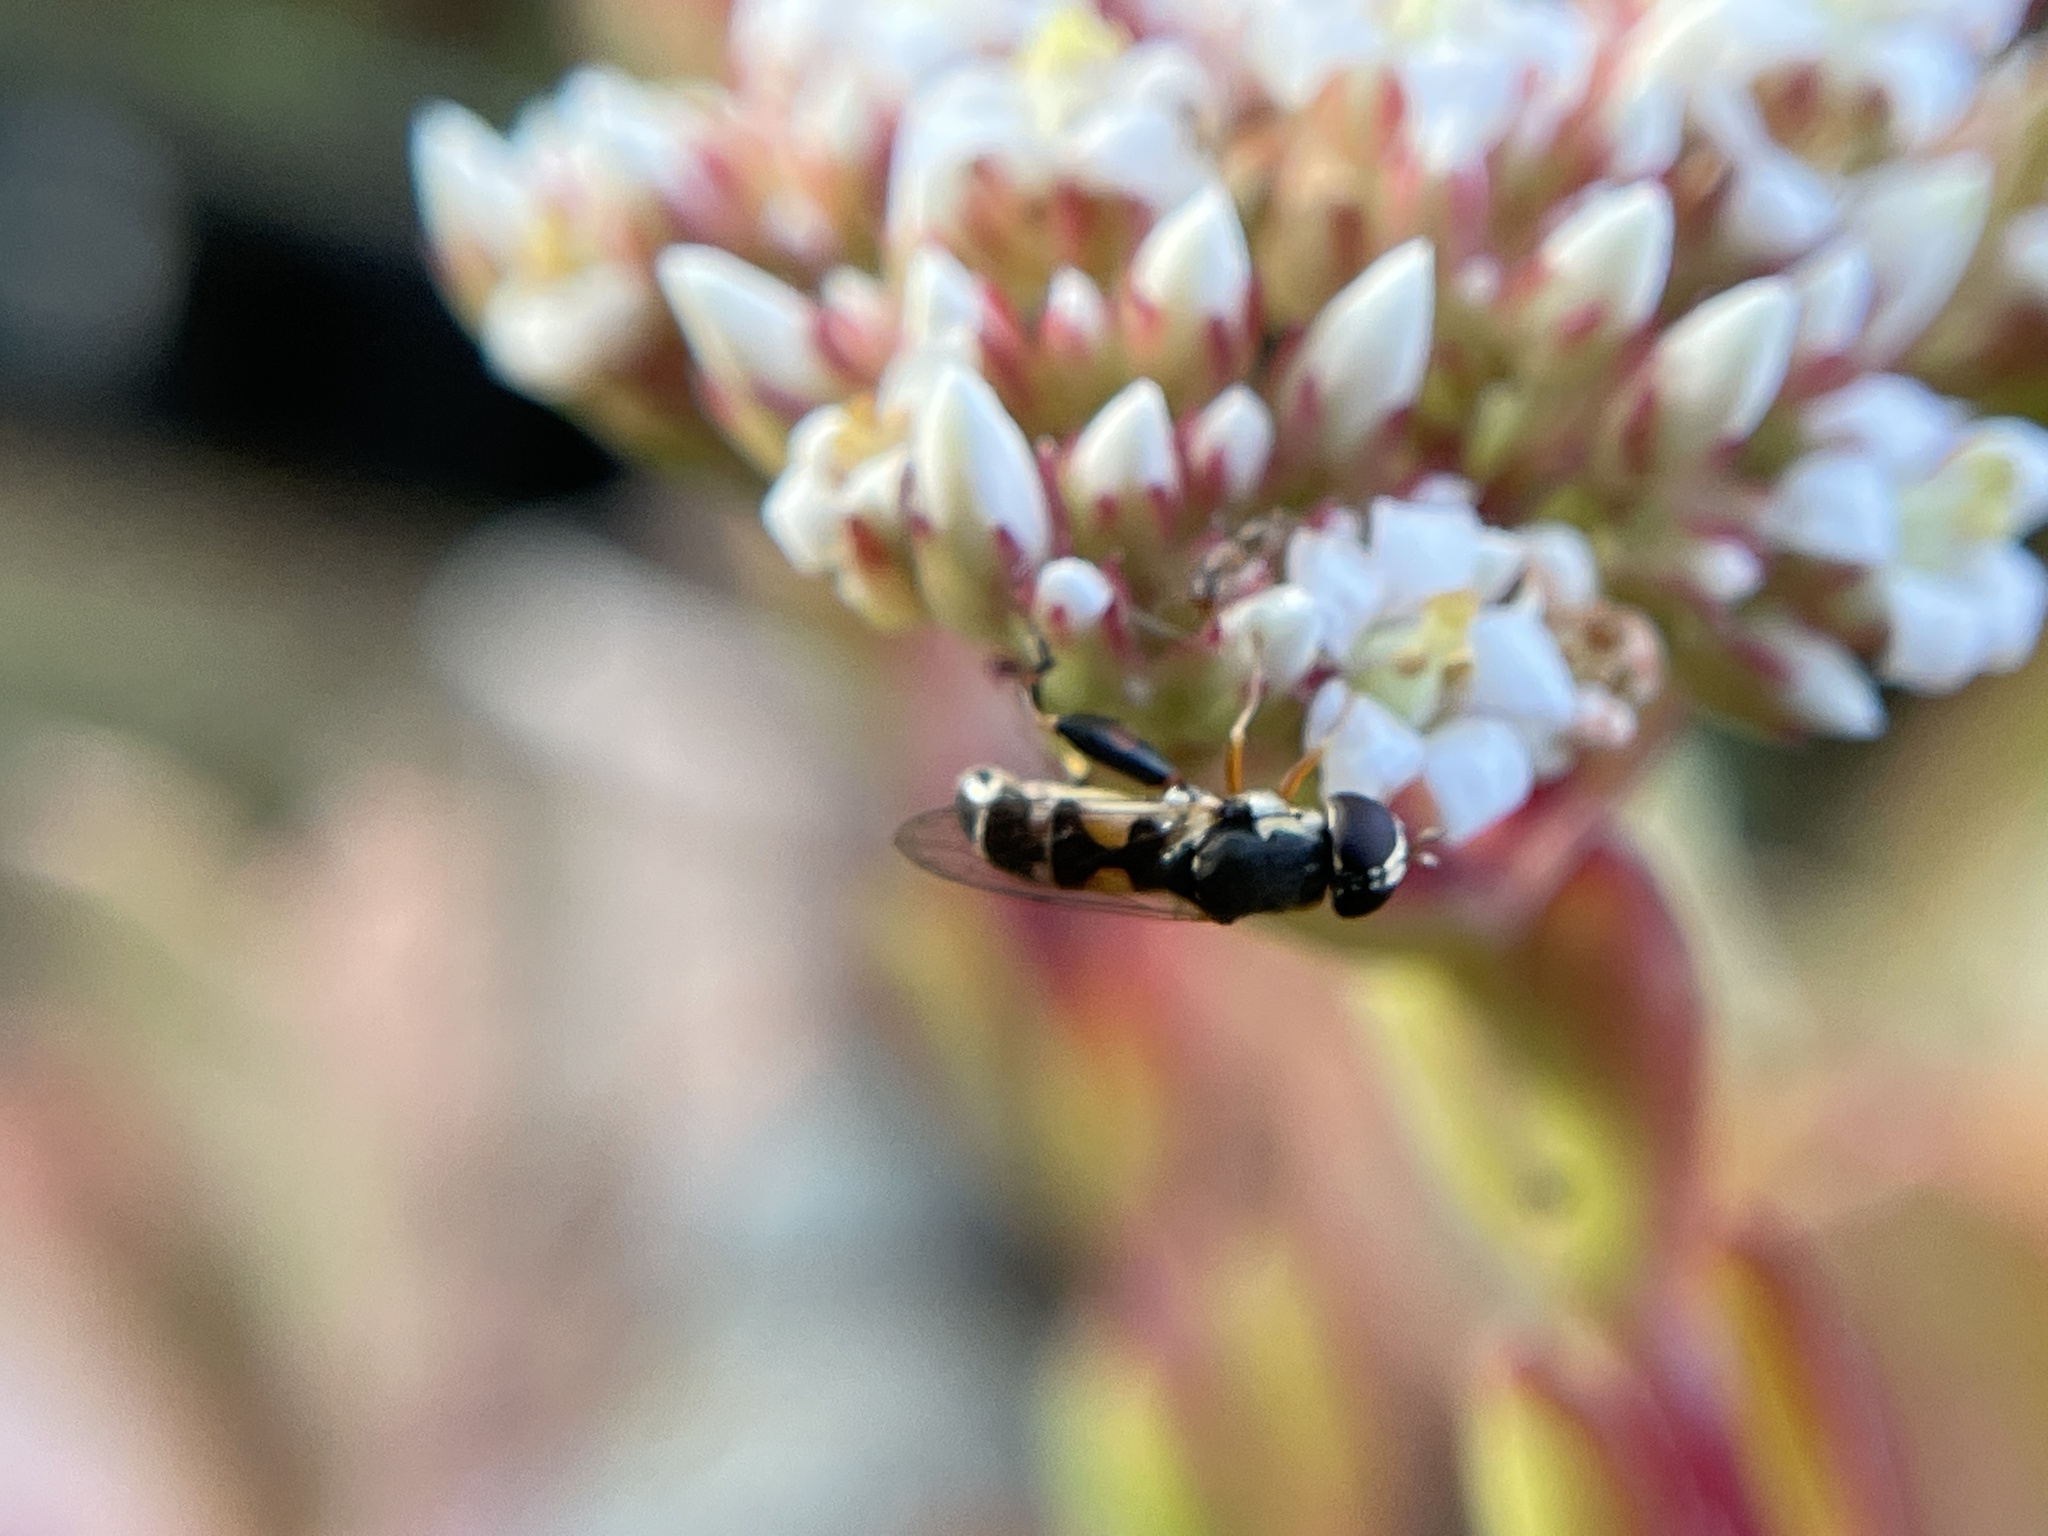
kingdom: Animalia
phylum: Arthropoda
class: Insecta
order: Diptera
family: Syrphidae
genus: Syritta
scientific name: Syritta pipiens
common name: Hover fly
